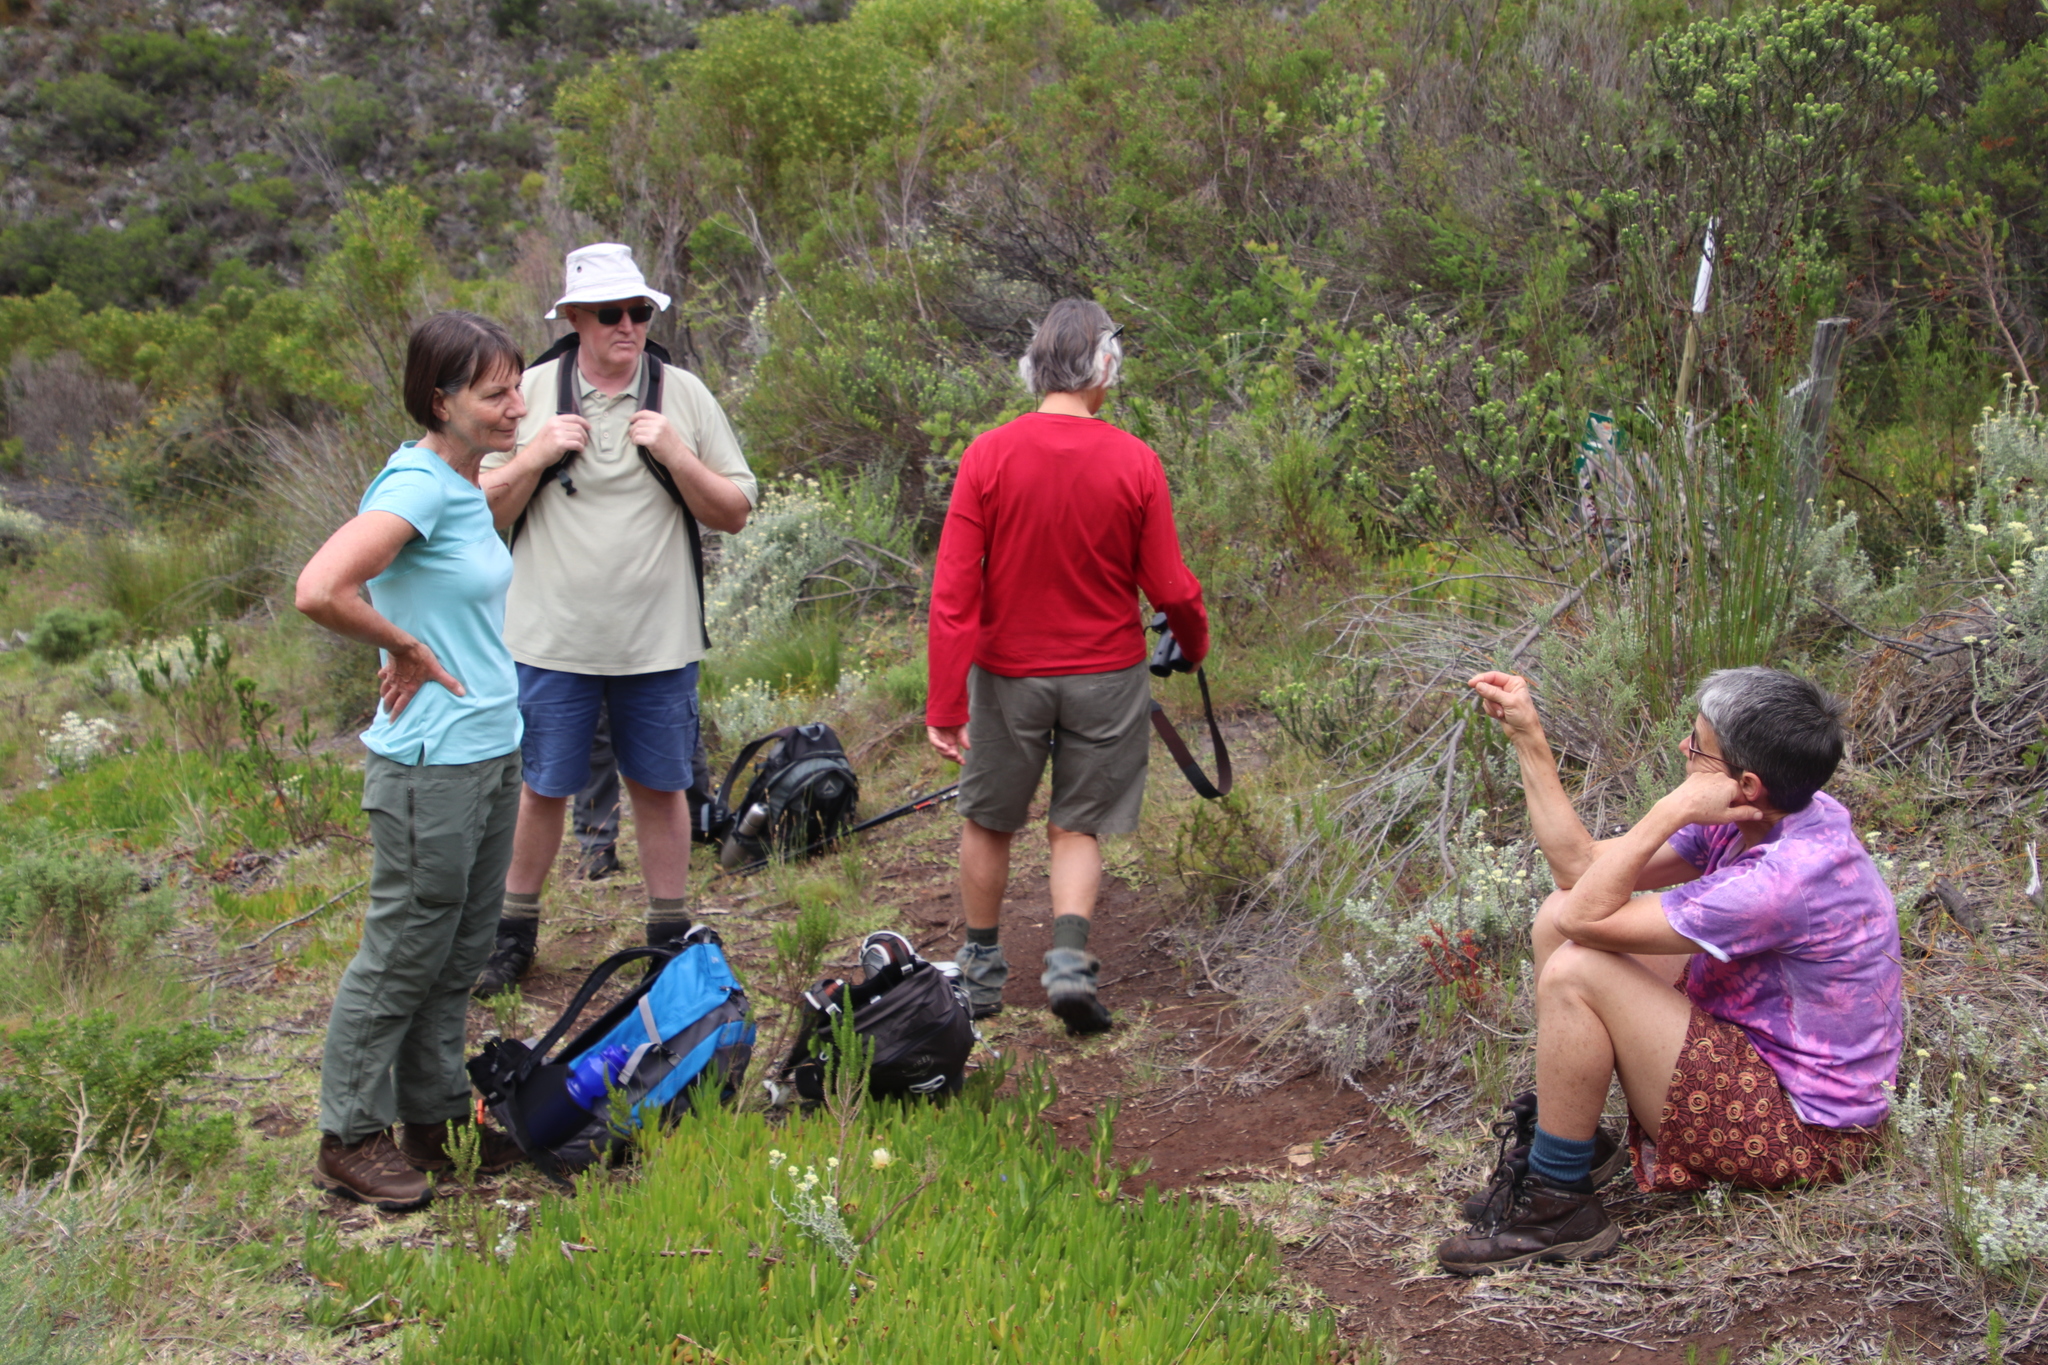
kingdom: Plantae
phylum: Tracheophyta
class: Magnoliopsida
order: Caryophyllales
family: Aizoaceae
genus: Carpobrotus
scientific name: Carpobrotus edulis
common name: Hottentot-fig
